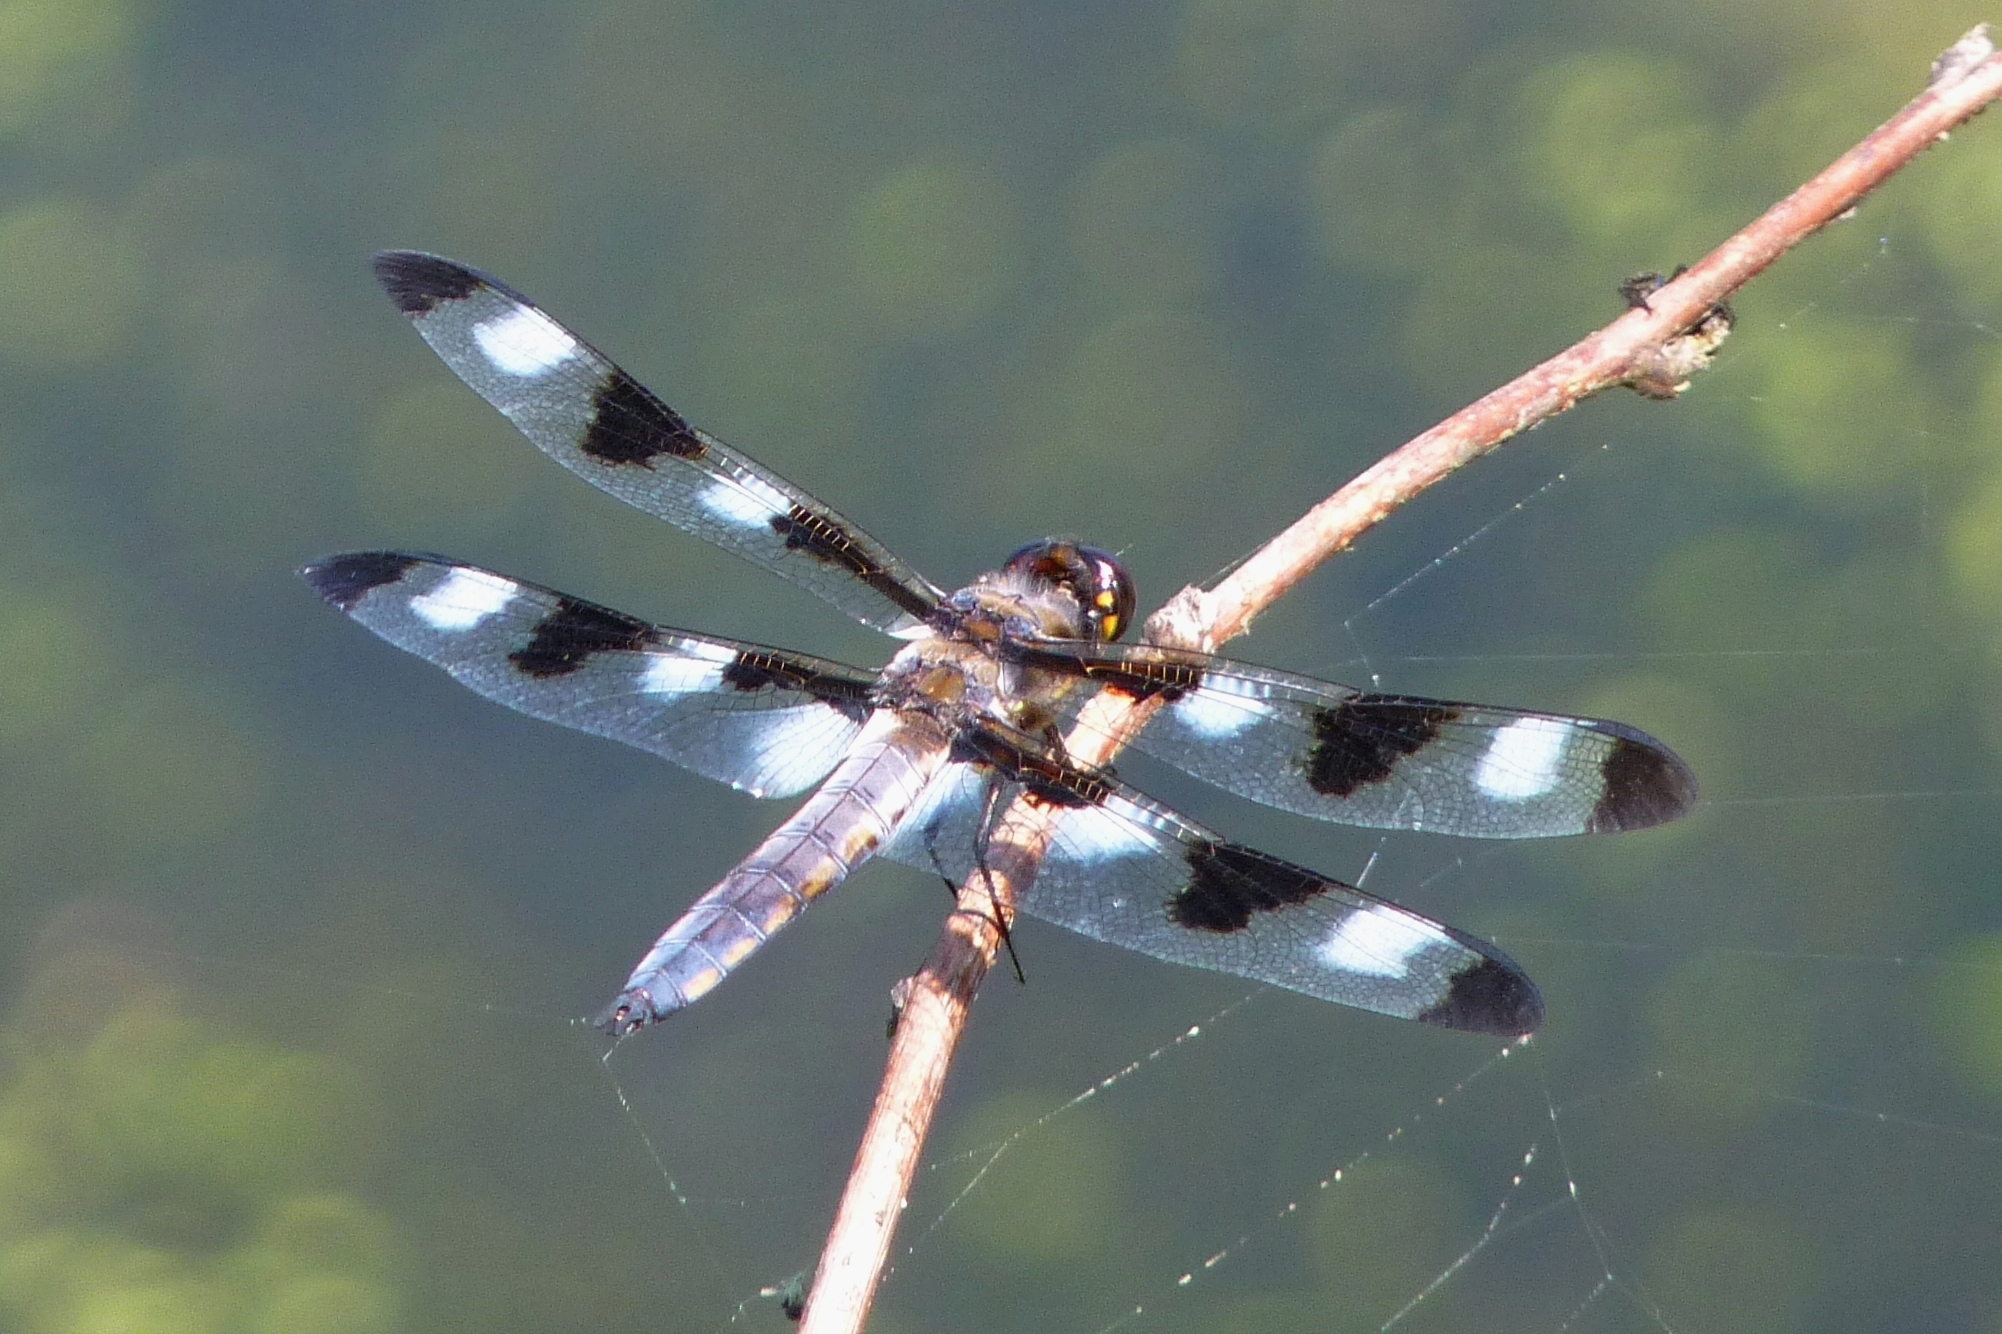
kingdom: Animalia
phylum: Arthropoda
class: Insecta
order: Odonata
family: Libellulidae
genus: Libellula
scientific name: Libellula pulchella
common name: Twelve-spotted skimmer
